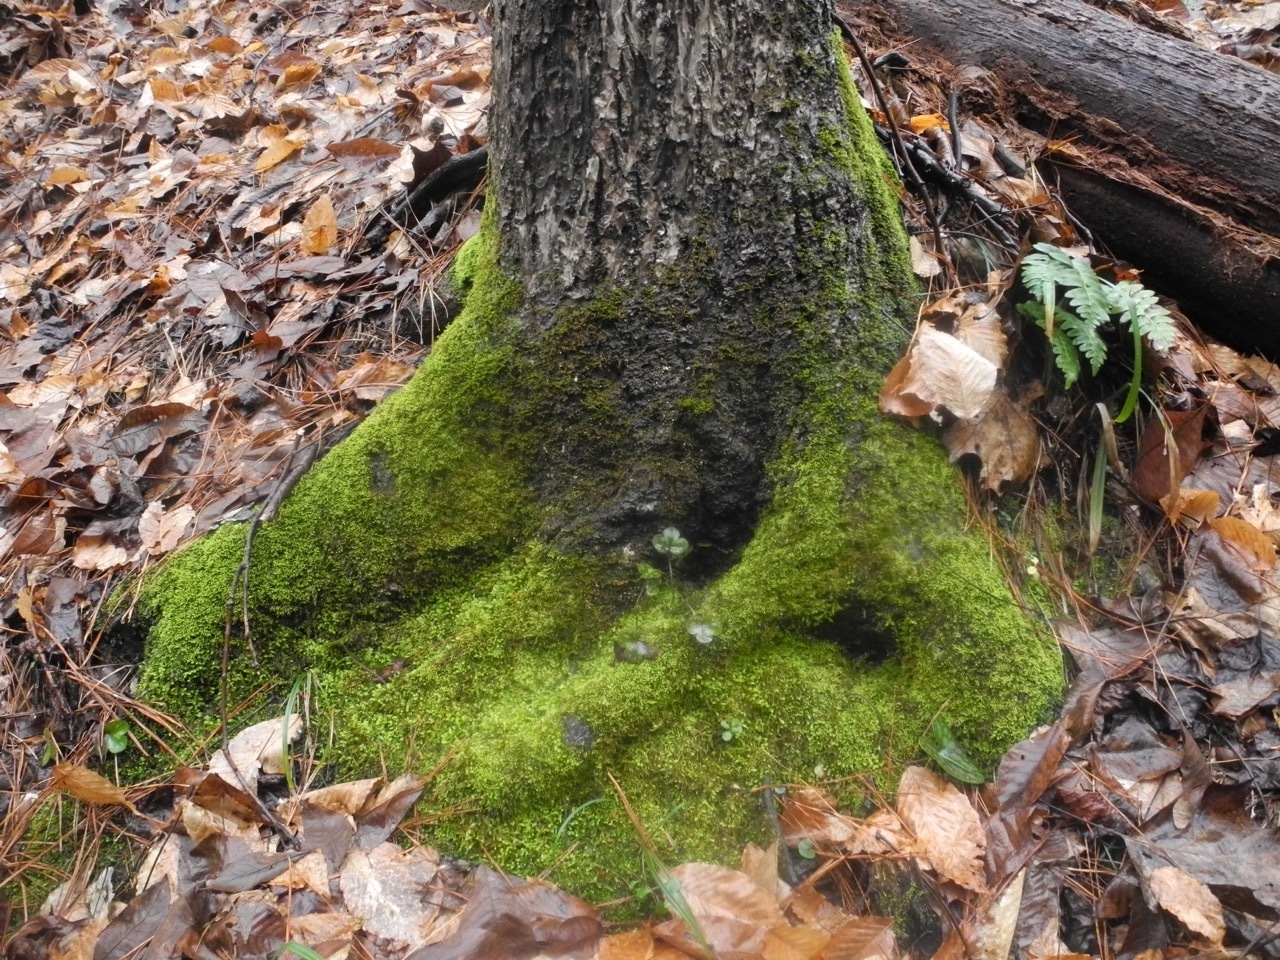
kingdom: Plantae
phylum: Tracheophyta
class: Magnoliopsida
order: Ranunculales
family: Ranunculaceae
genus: Hepatica
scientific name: Hepatica americana
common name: American hepatica
